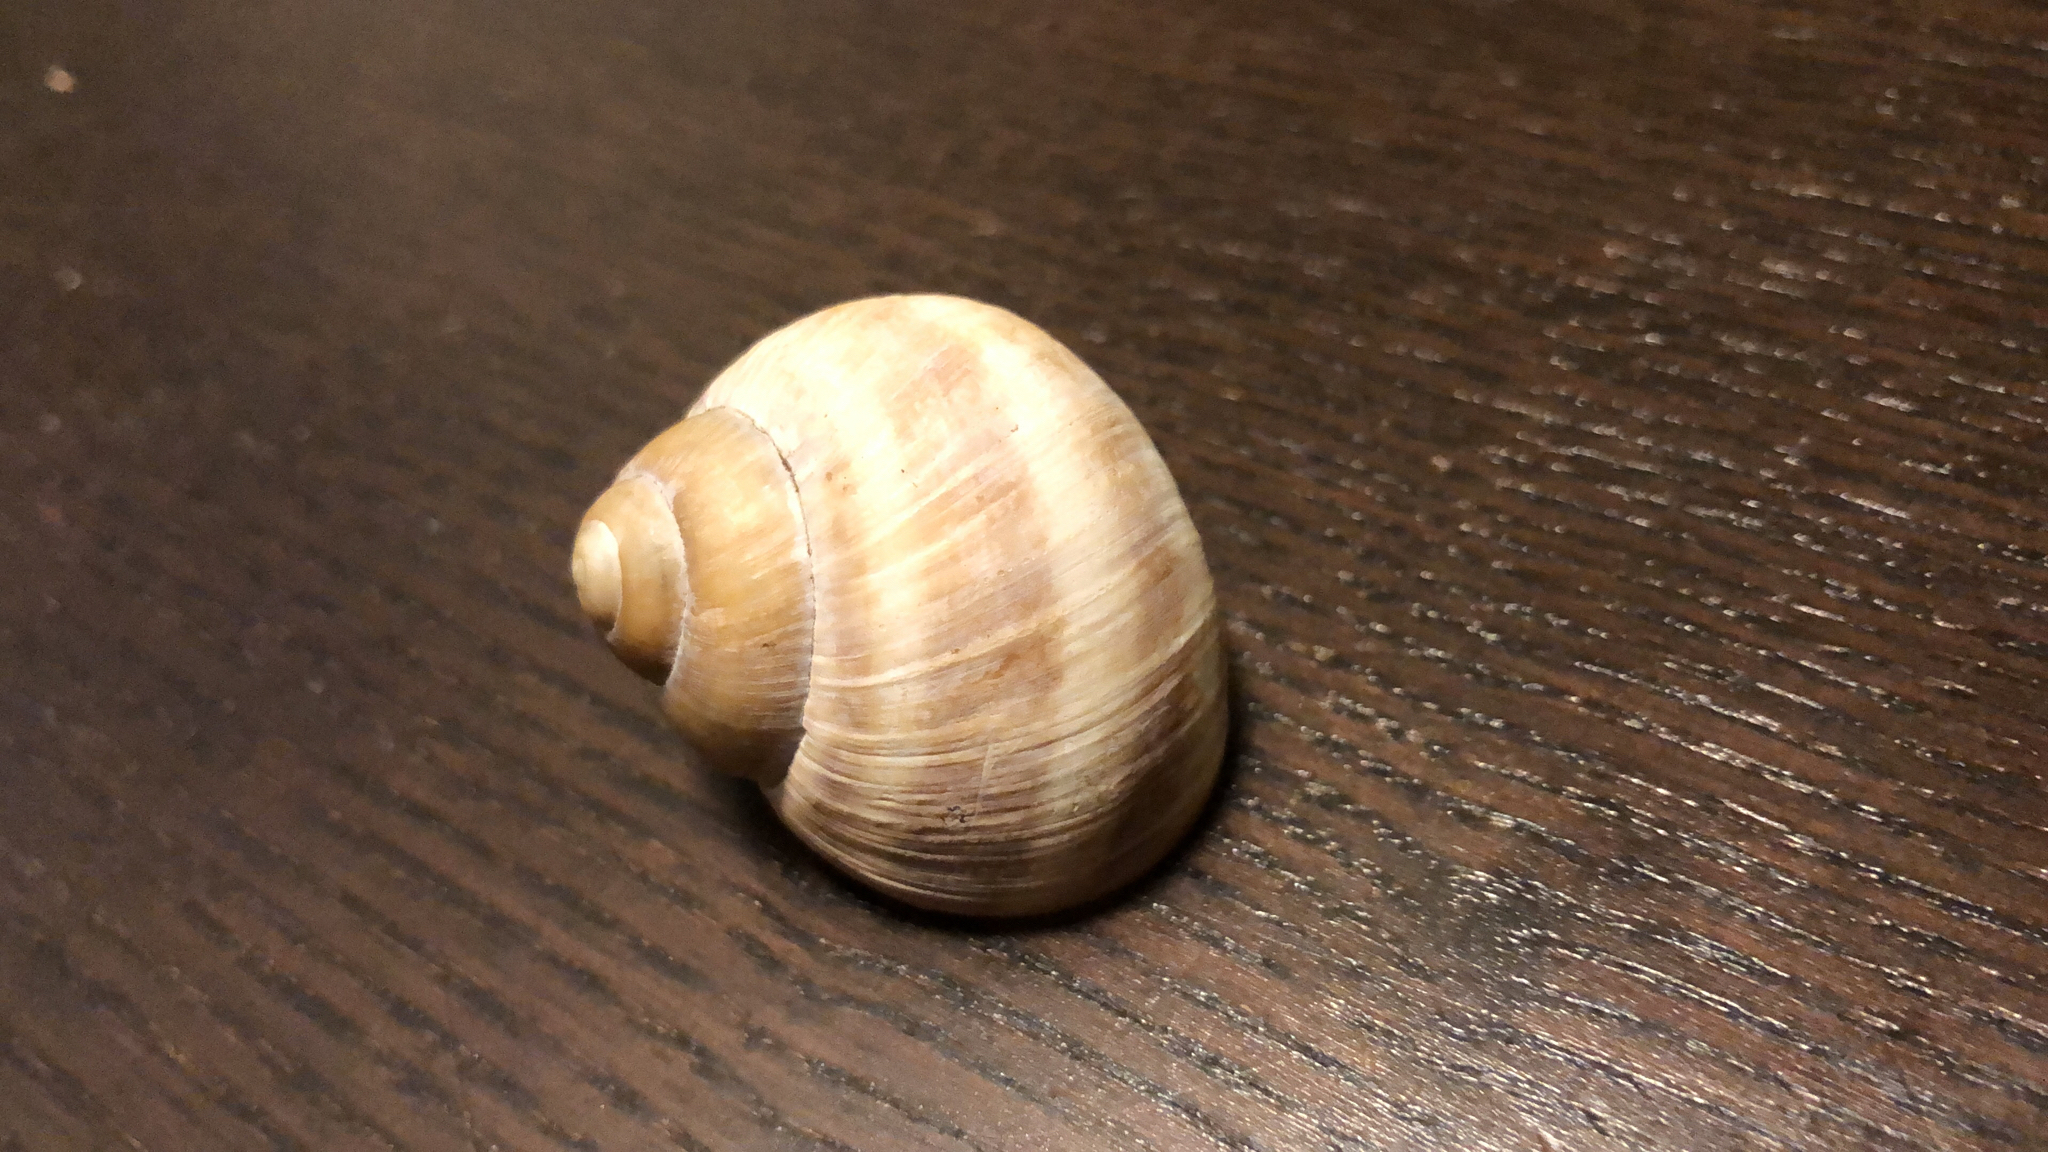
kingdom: Animalia
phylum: Mollusca
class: Gastropoda
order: Stylommatophora
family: Helicidae
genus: Helix
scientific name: Helix pomatia
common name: Roman snail
